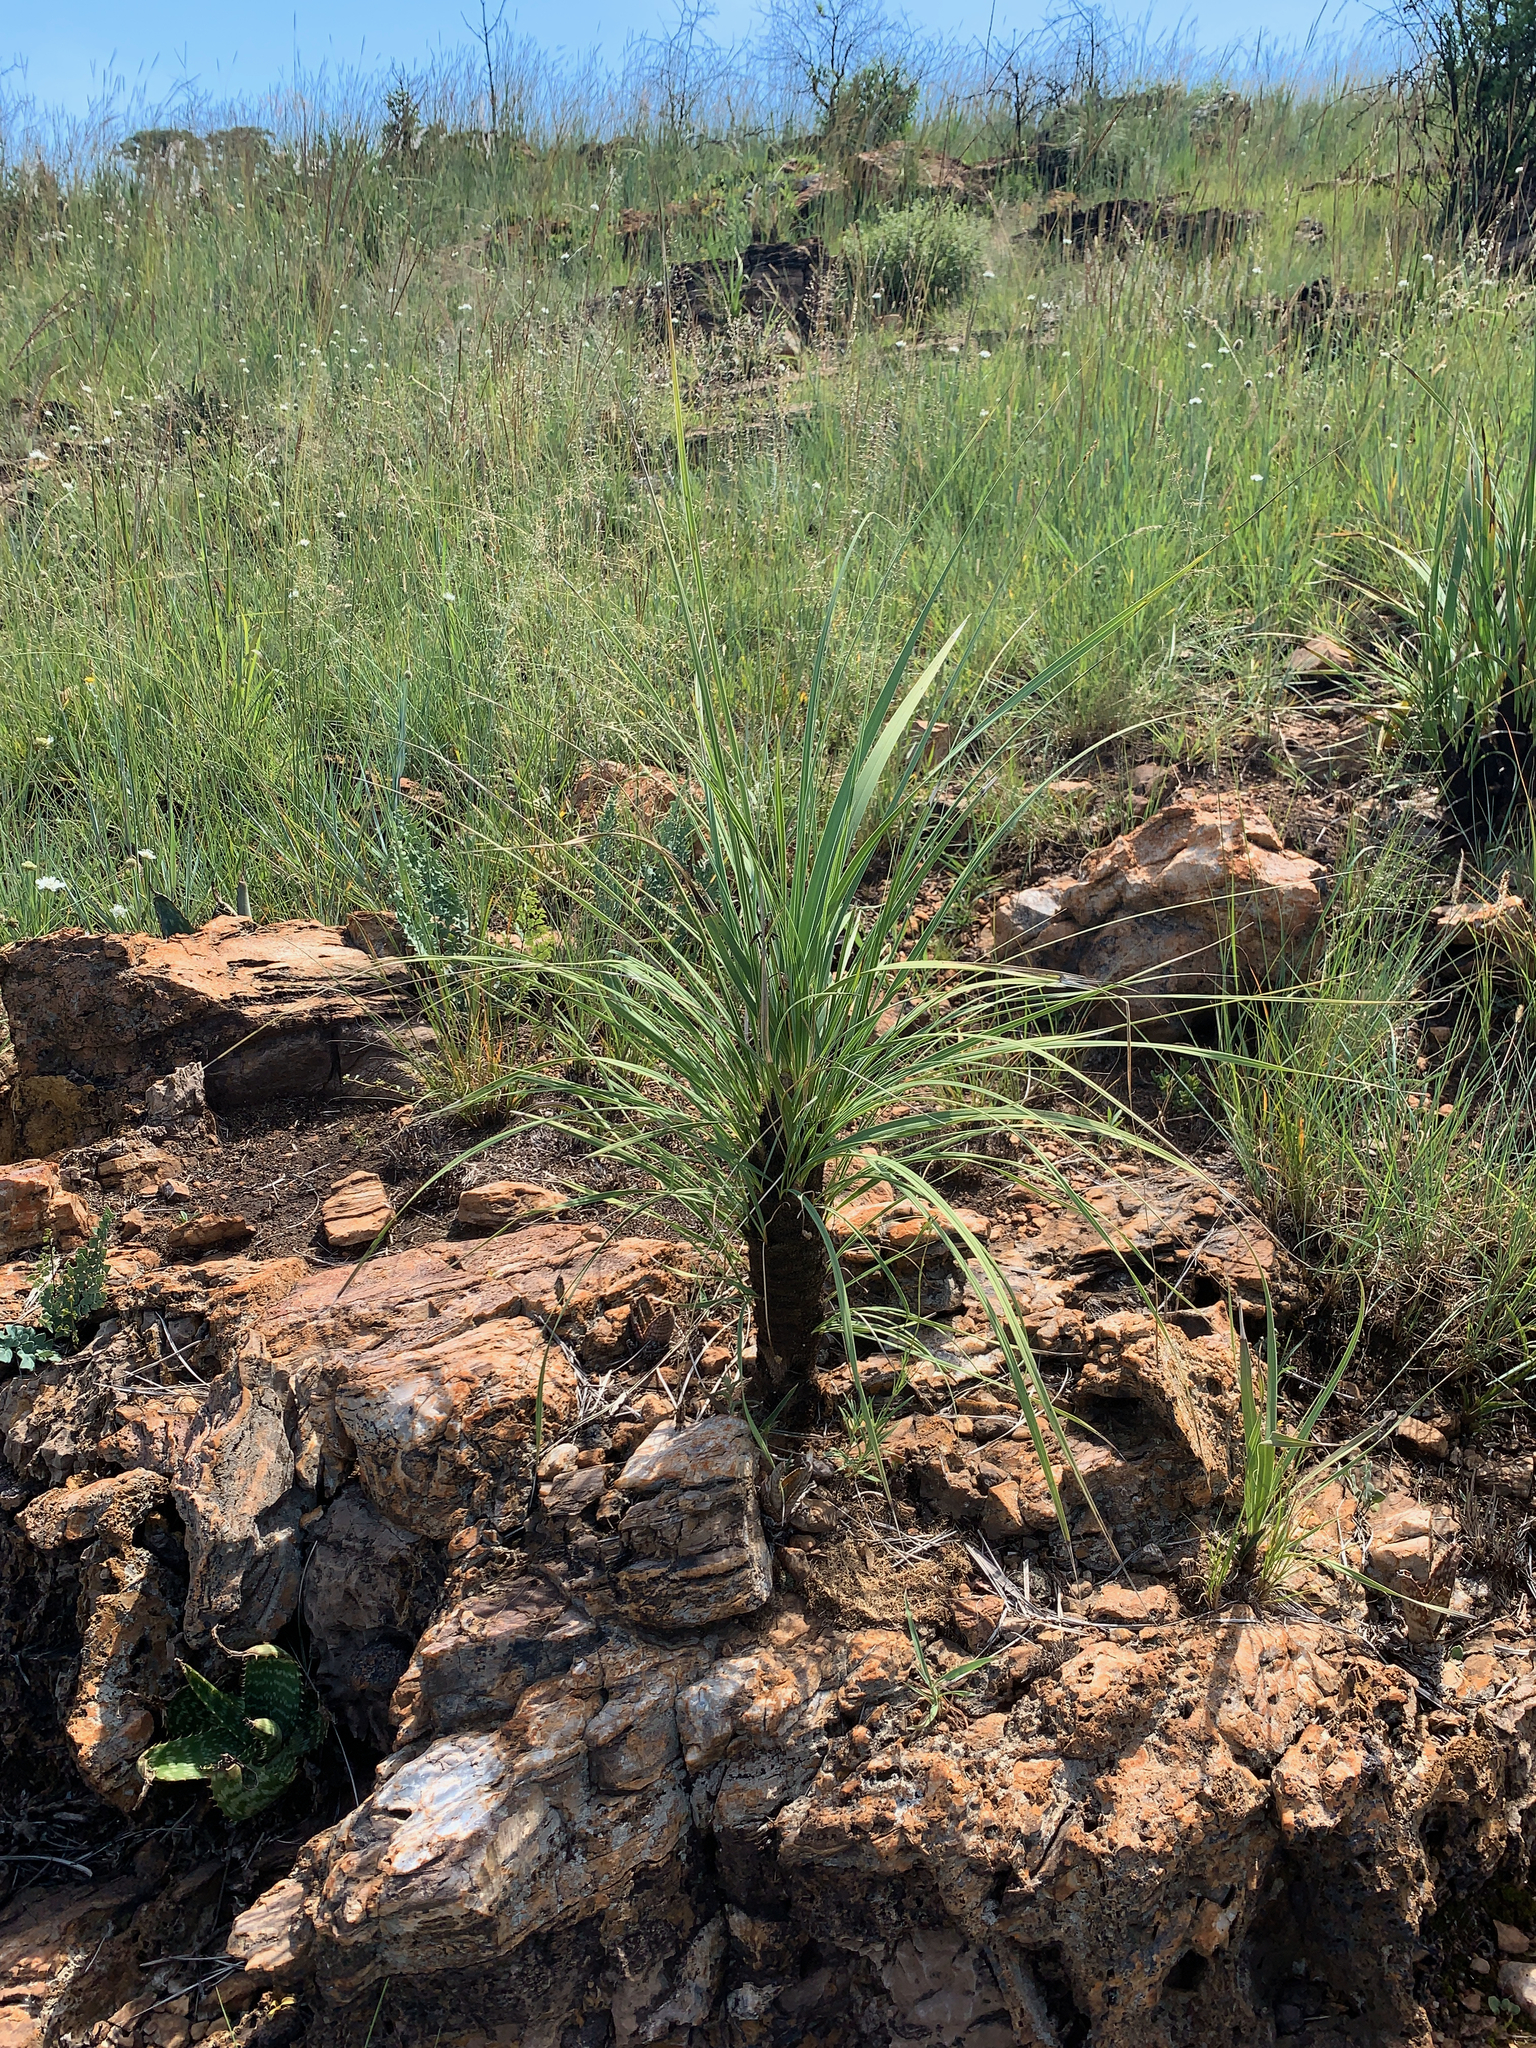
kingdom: Plantae
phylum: Tracheophyta
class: Liliopsida
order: Pandanales
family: Velloziaceae
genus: Xerophyta
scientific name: Xerophyta retinervis
